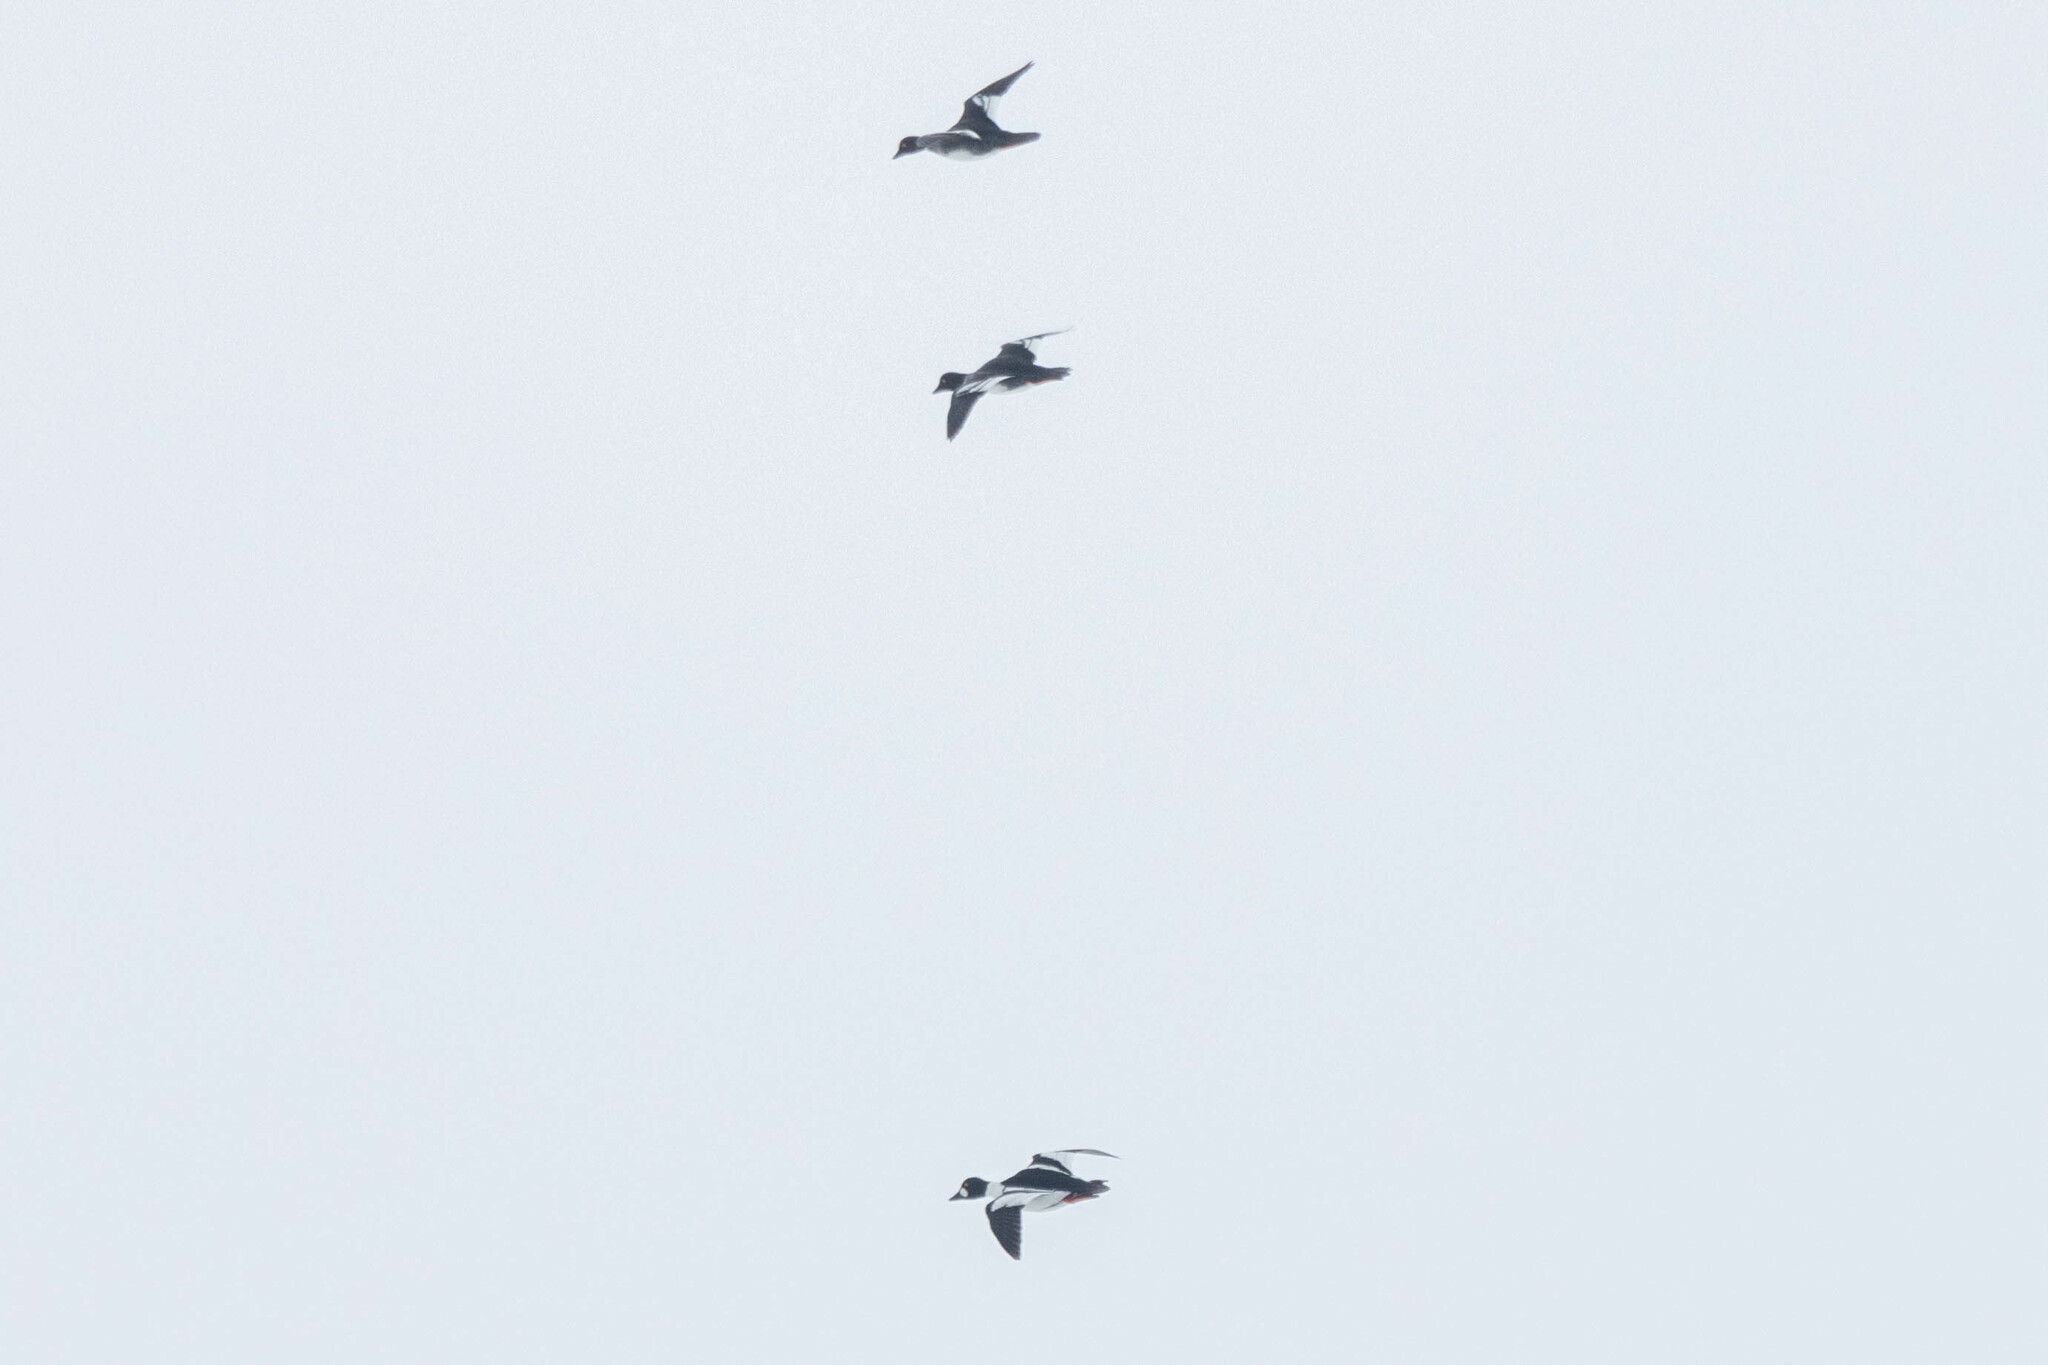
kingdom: Animalia
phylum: Chordata
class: Aves
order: Anseriformes
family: Anatidae
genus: Bucephala
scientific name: Bucephala clangula
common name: Common goldeneye
